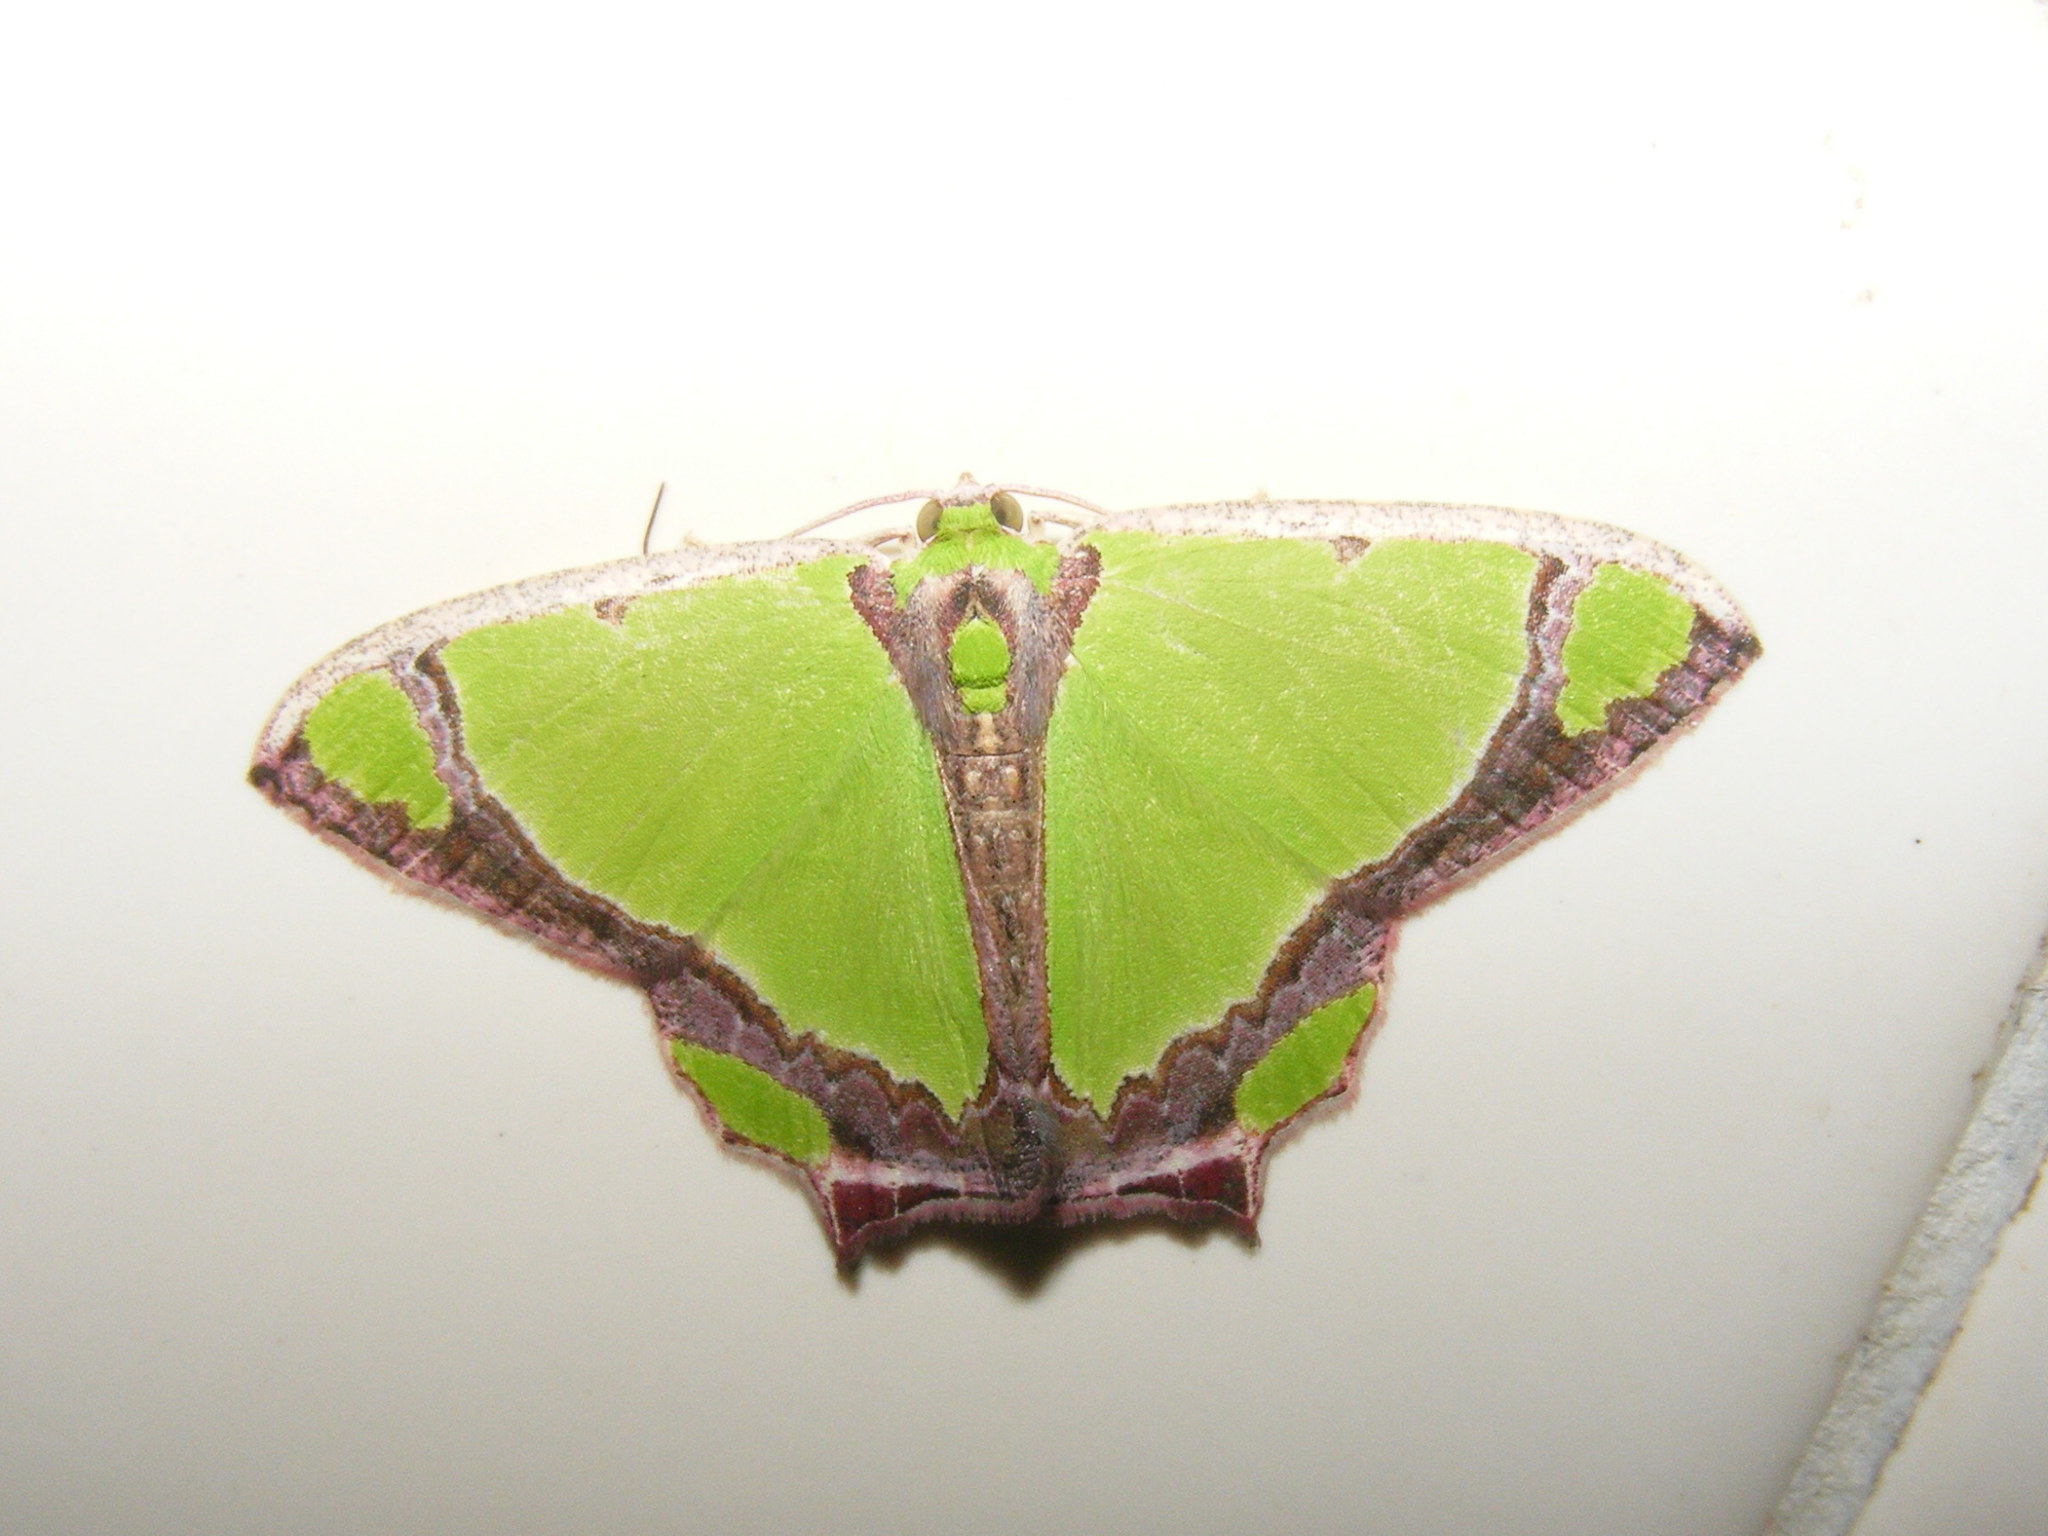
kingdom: Animalia
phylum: Arthropoda
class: Insecta
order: Lepidoptera
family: Geometridae
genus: Agathia
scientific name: Agathia laetata
